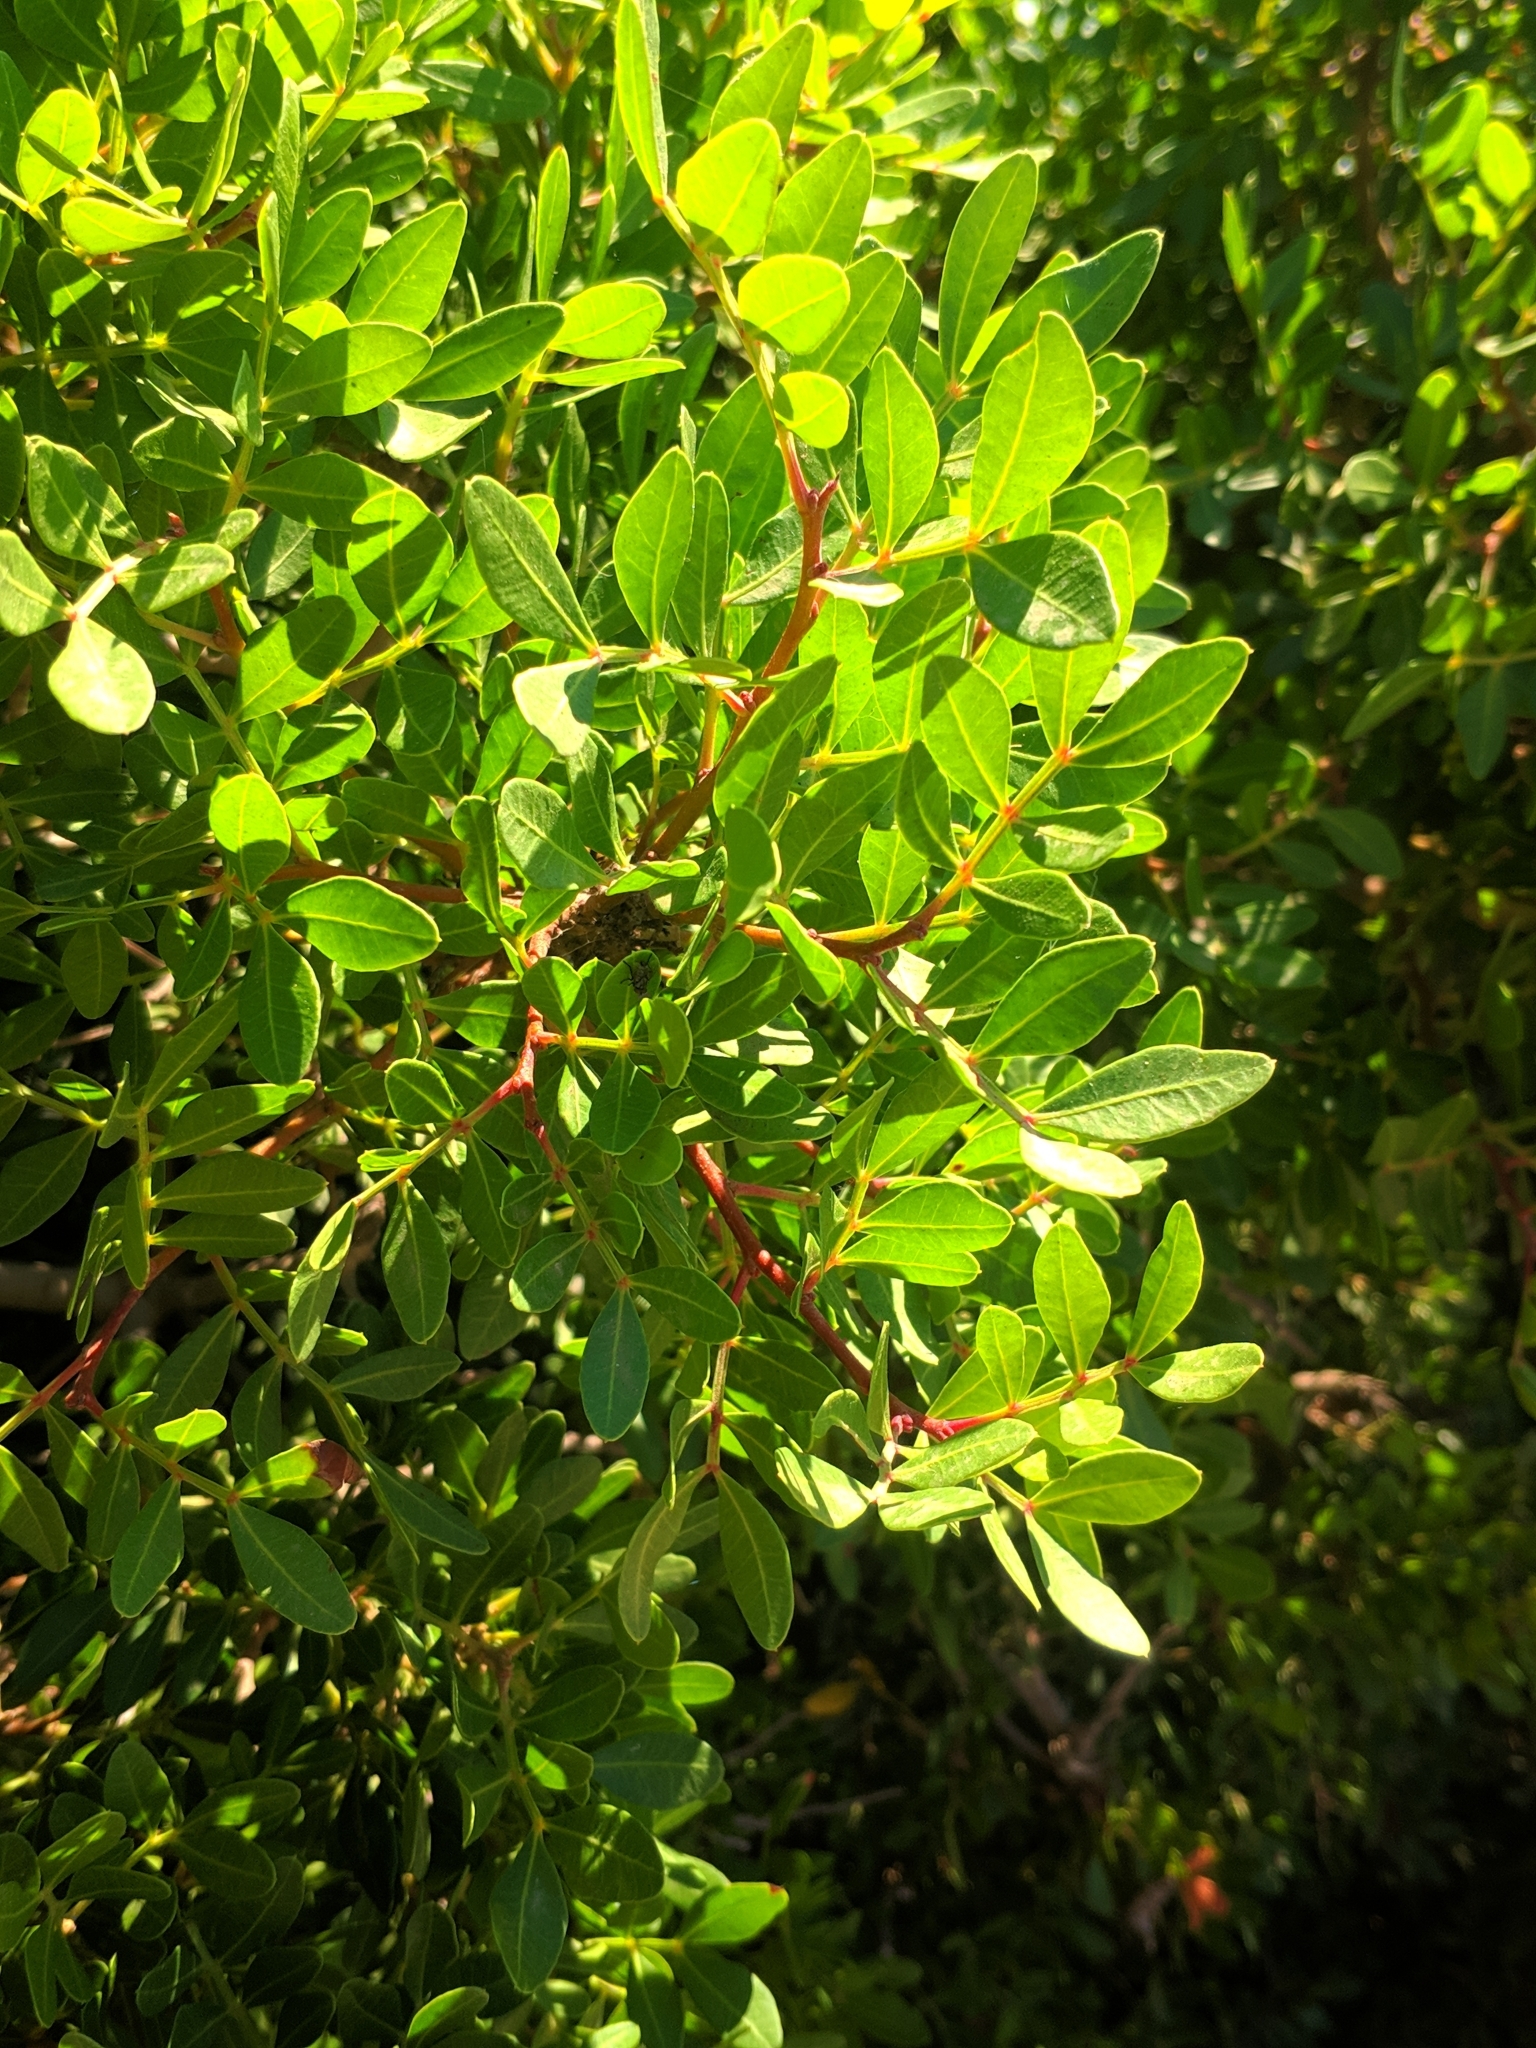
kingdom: Plantae
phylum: Tracheophyta
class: Magnoliopsida
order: Sapindales
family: Anacardiaceae
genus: Pistacia
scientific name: Pistacia lentiscus
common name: Lentisk
